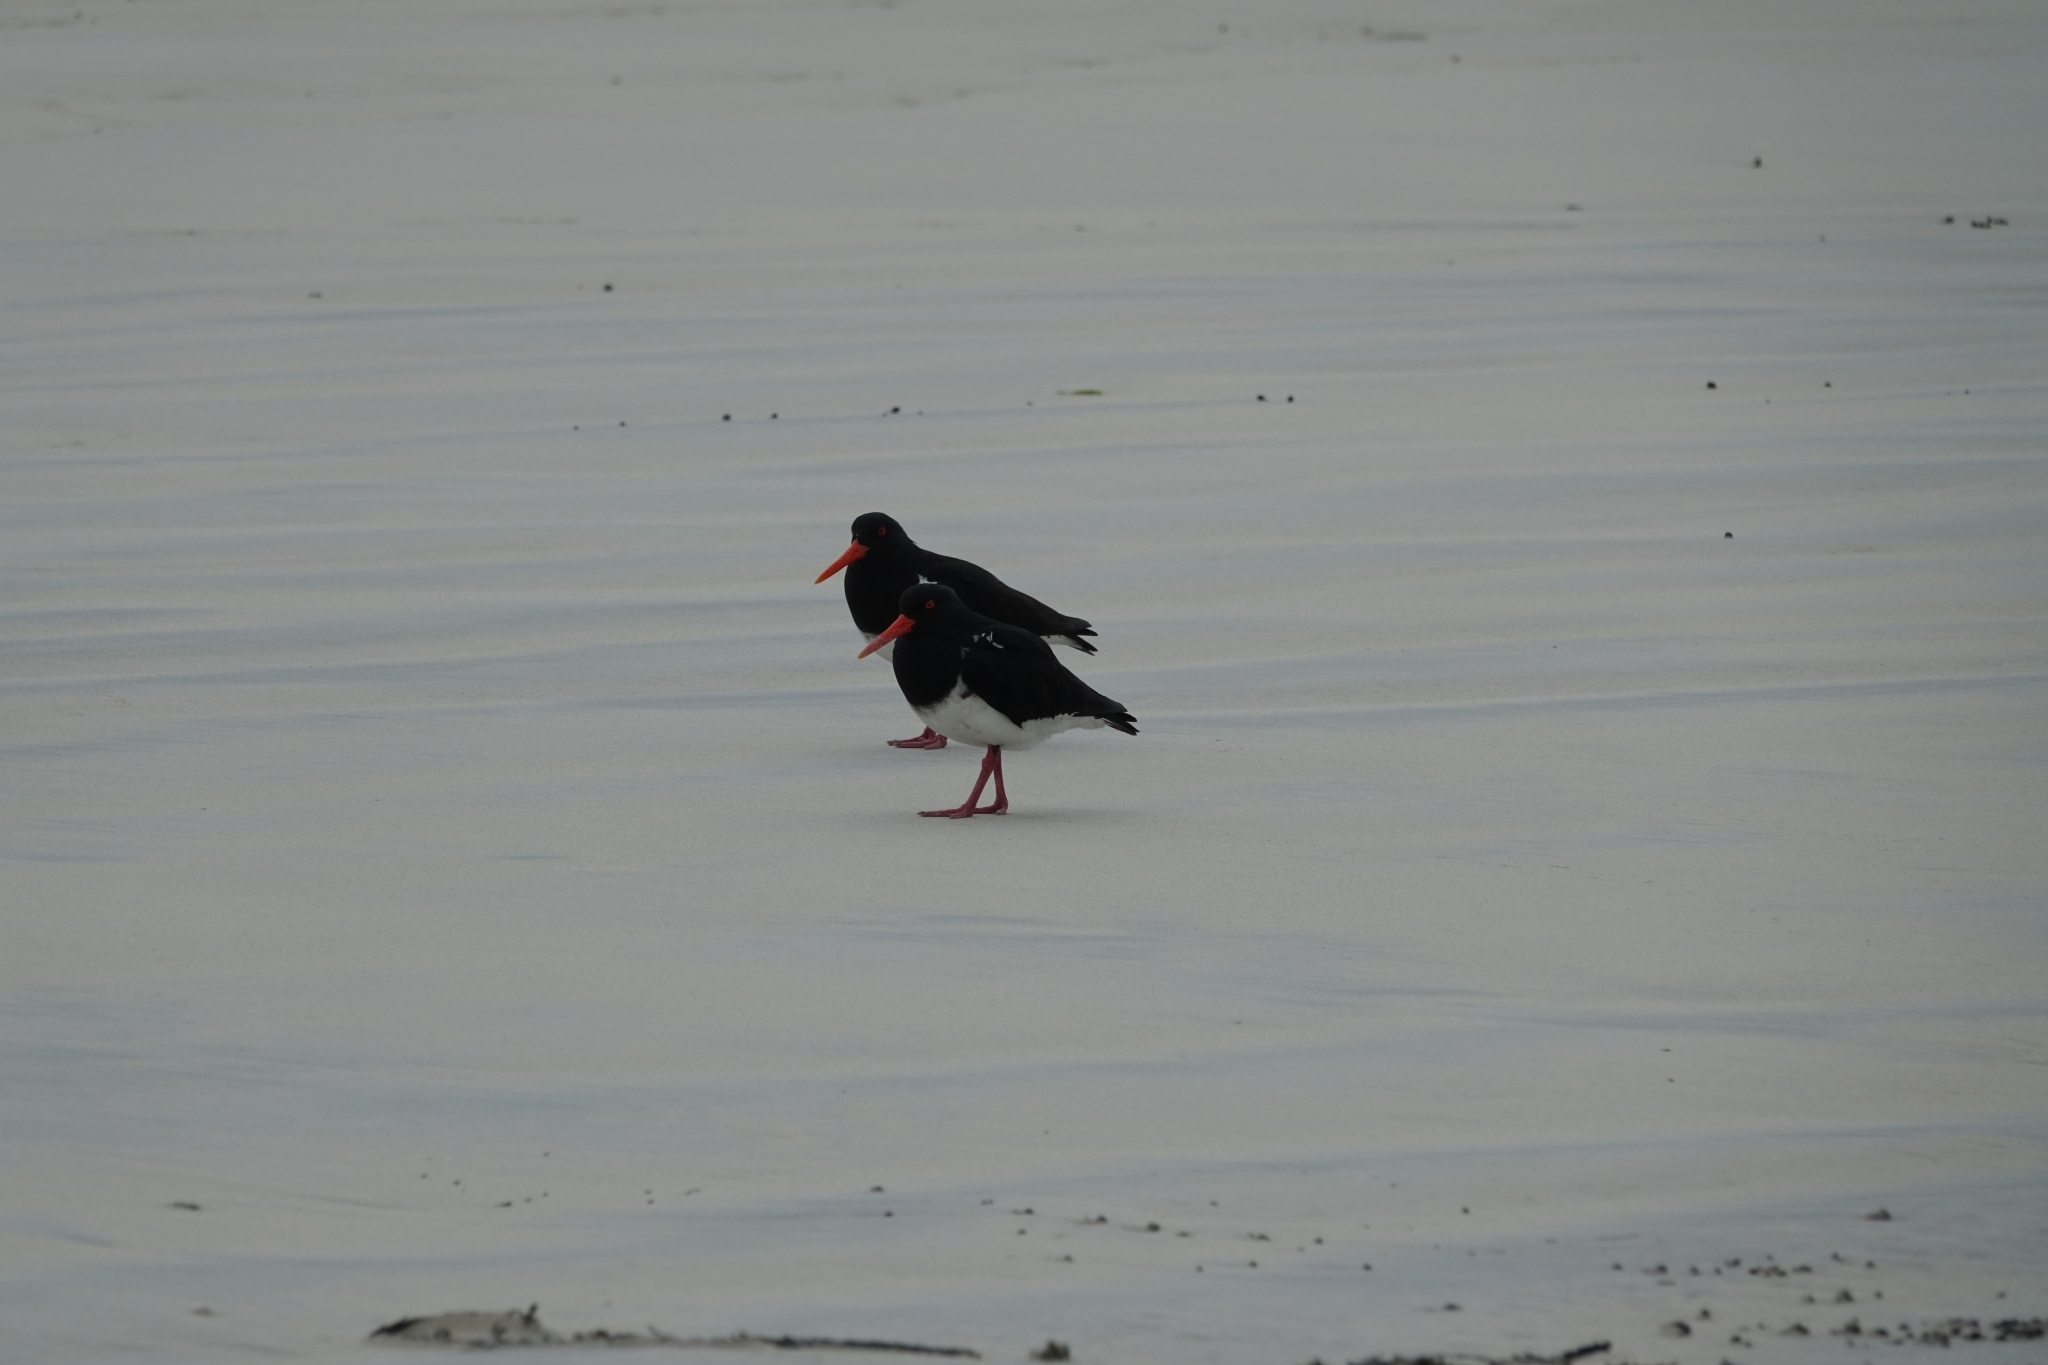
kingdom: Animalia
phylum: Chordata
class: Aves
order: Charadriiformes
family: Haematopodidae
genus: Haematopus
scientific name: Haematopus chathamensis
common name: Chatham oystercatcher
